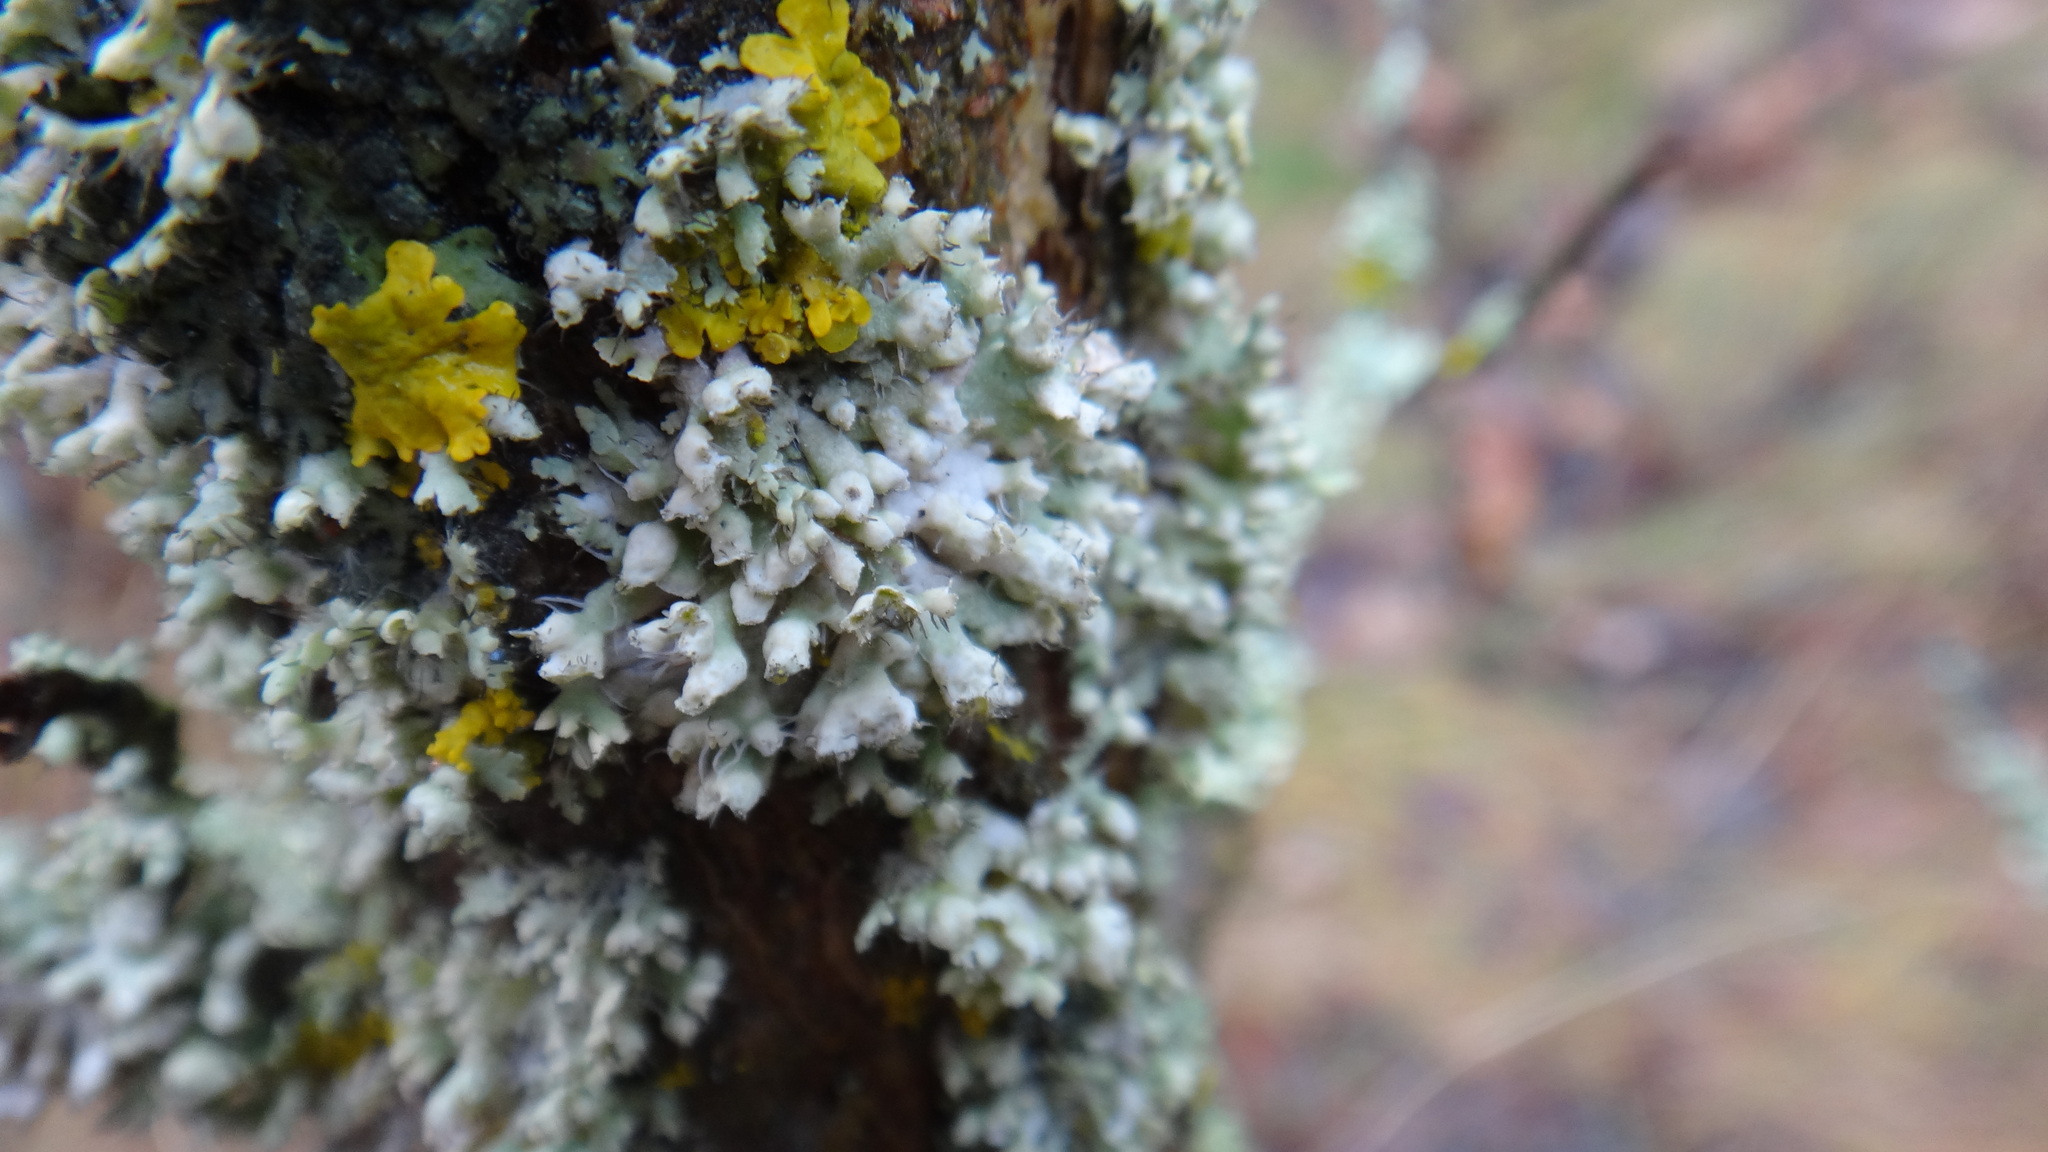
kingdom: Fungi
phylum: Ascomycota
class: Lecanoromycetes
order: Caliciales
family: Physciaceae
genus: Physcia
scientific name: Physcia adscendens
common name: Hooded rosette lichen
